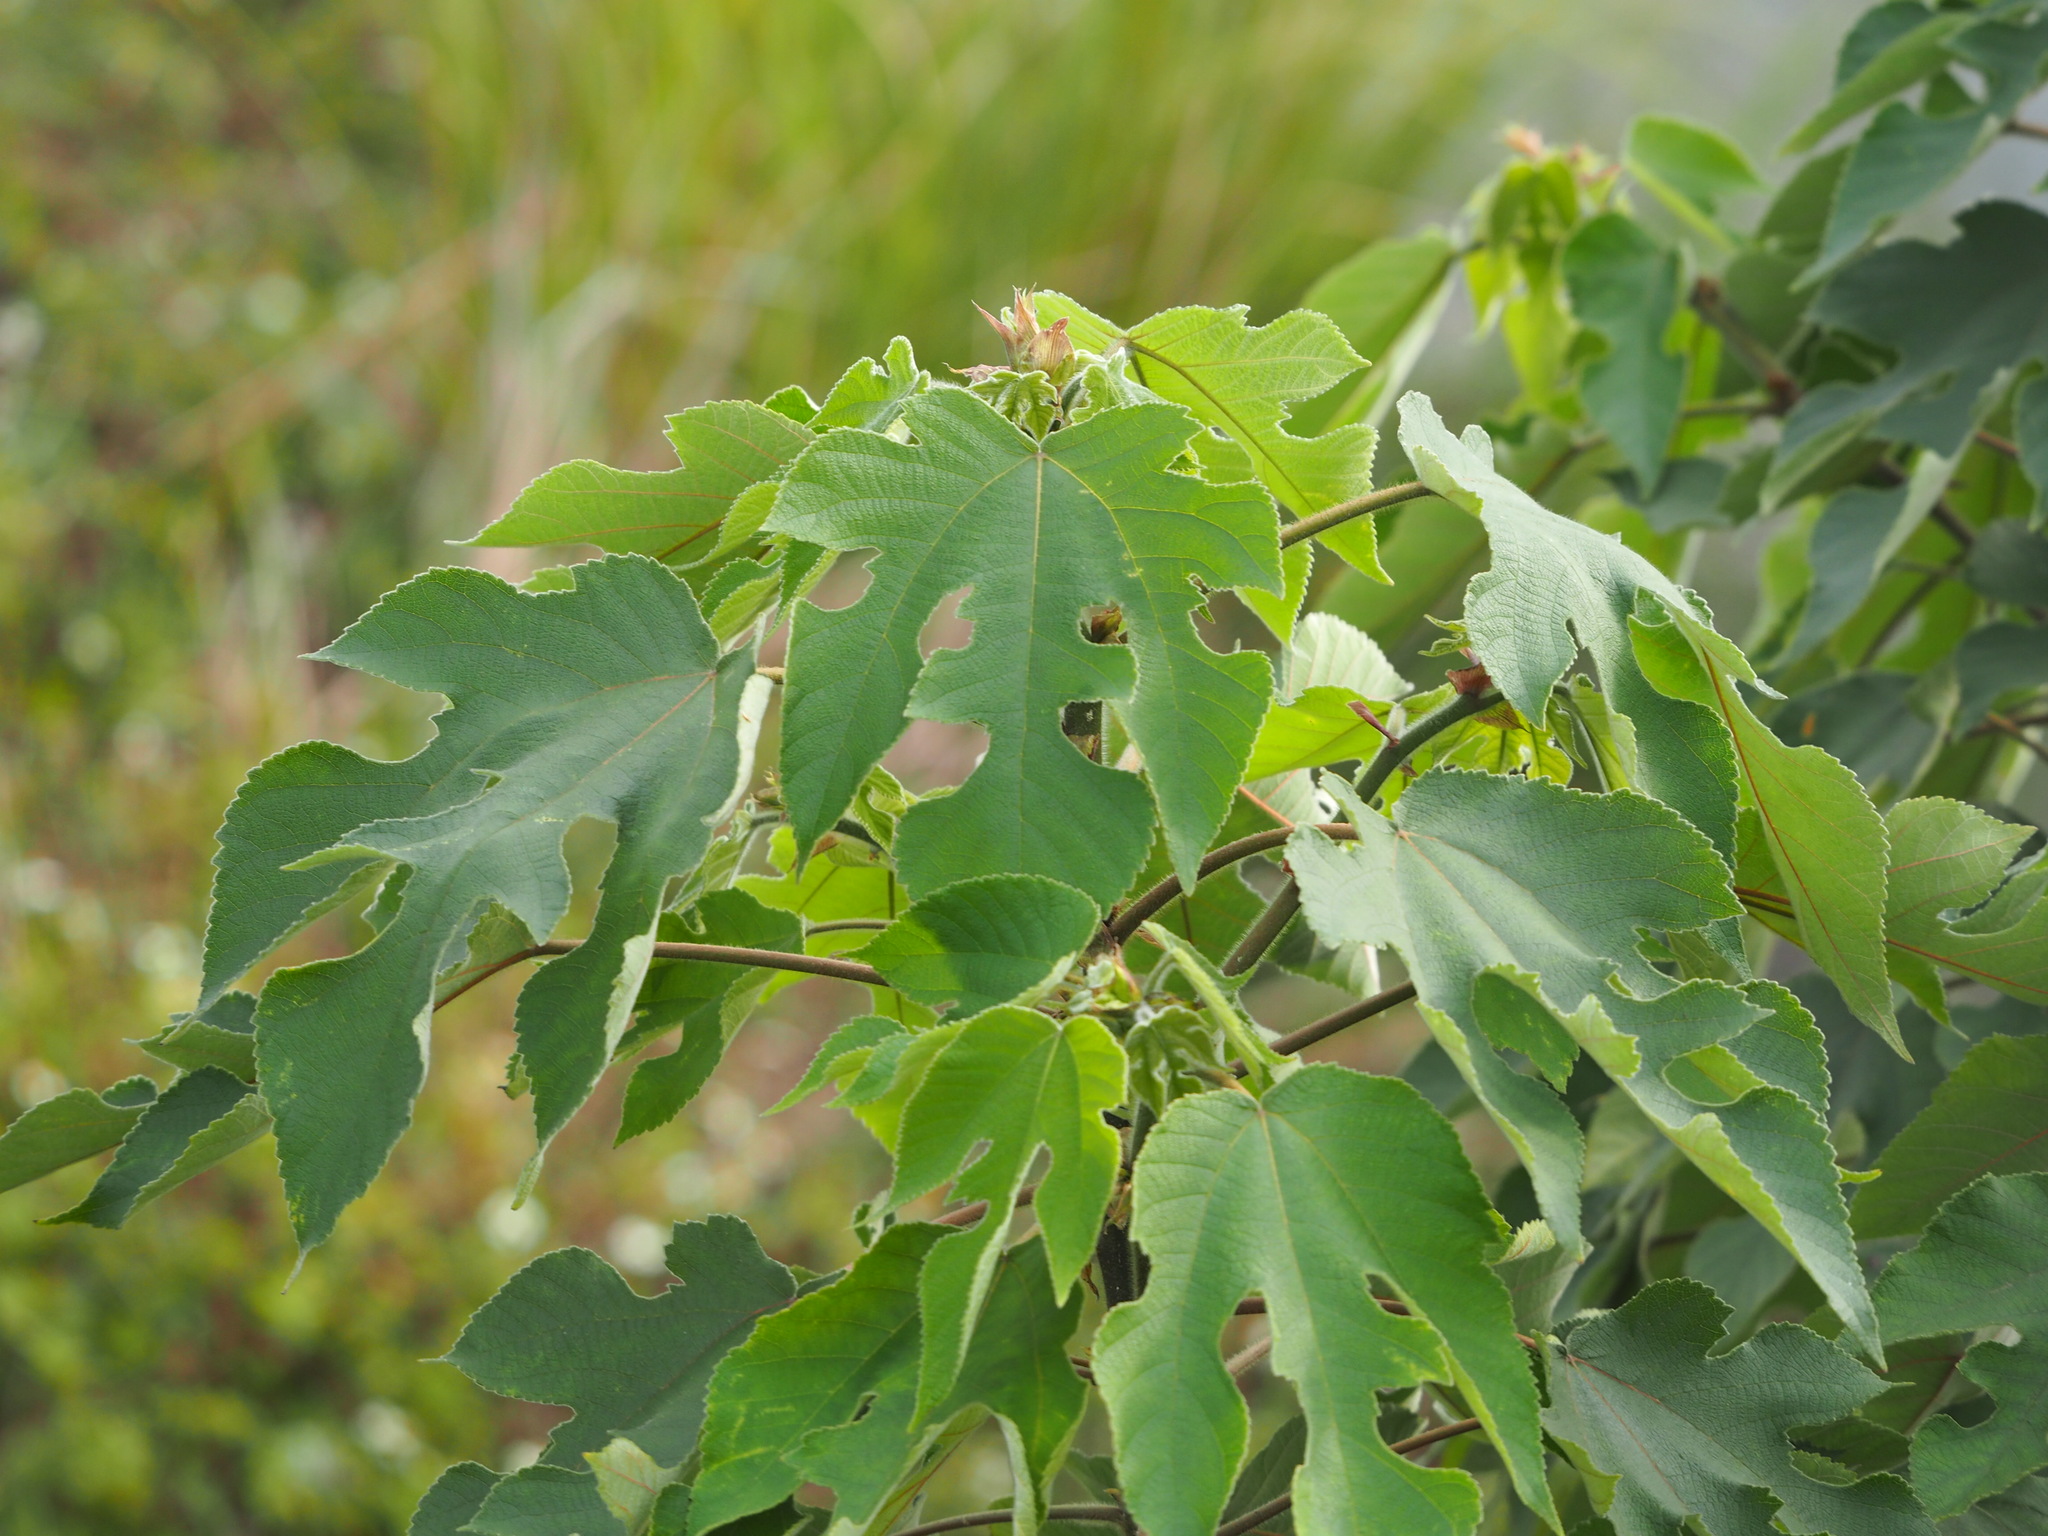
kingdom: Plantae
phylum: Tracheophyta
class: Magnoliopsida
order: Rosales
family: Moraceae
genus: Broussonetia
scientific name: Broussonetia papyrifera
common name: Paper mulberry
